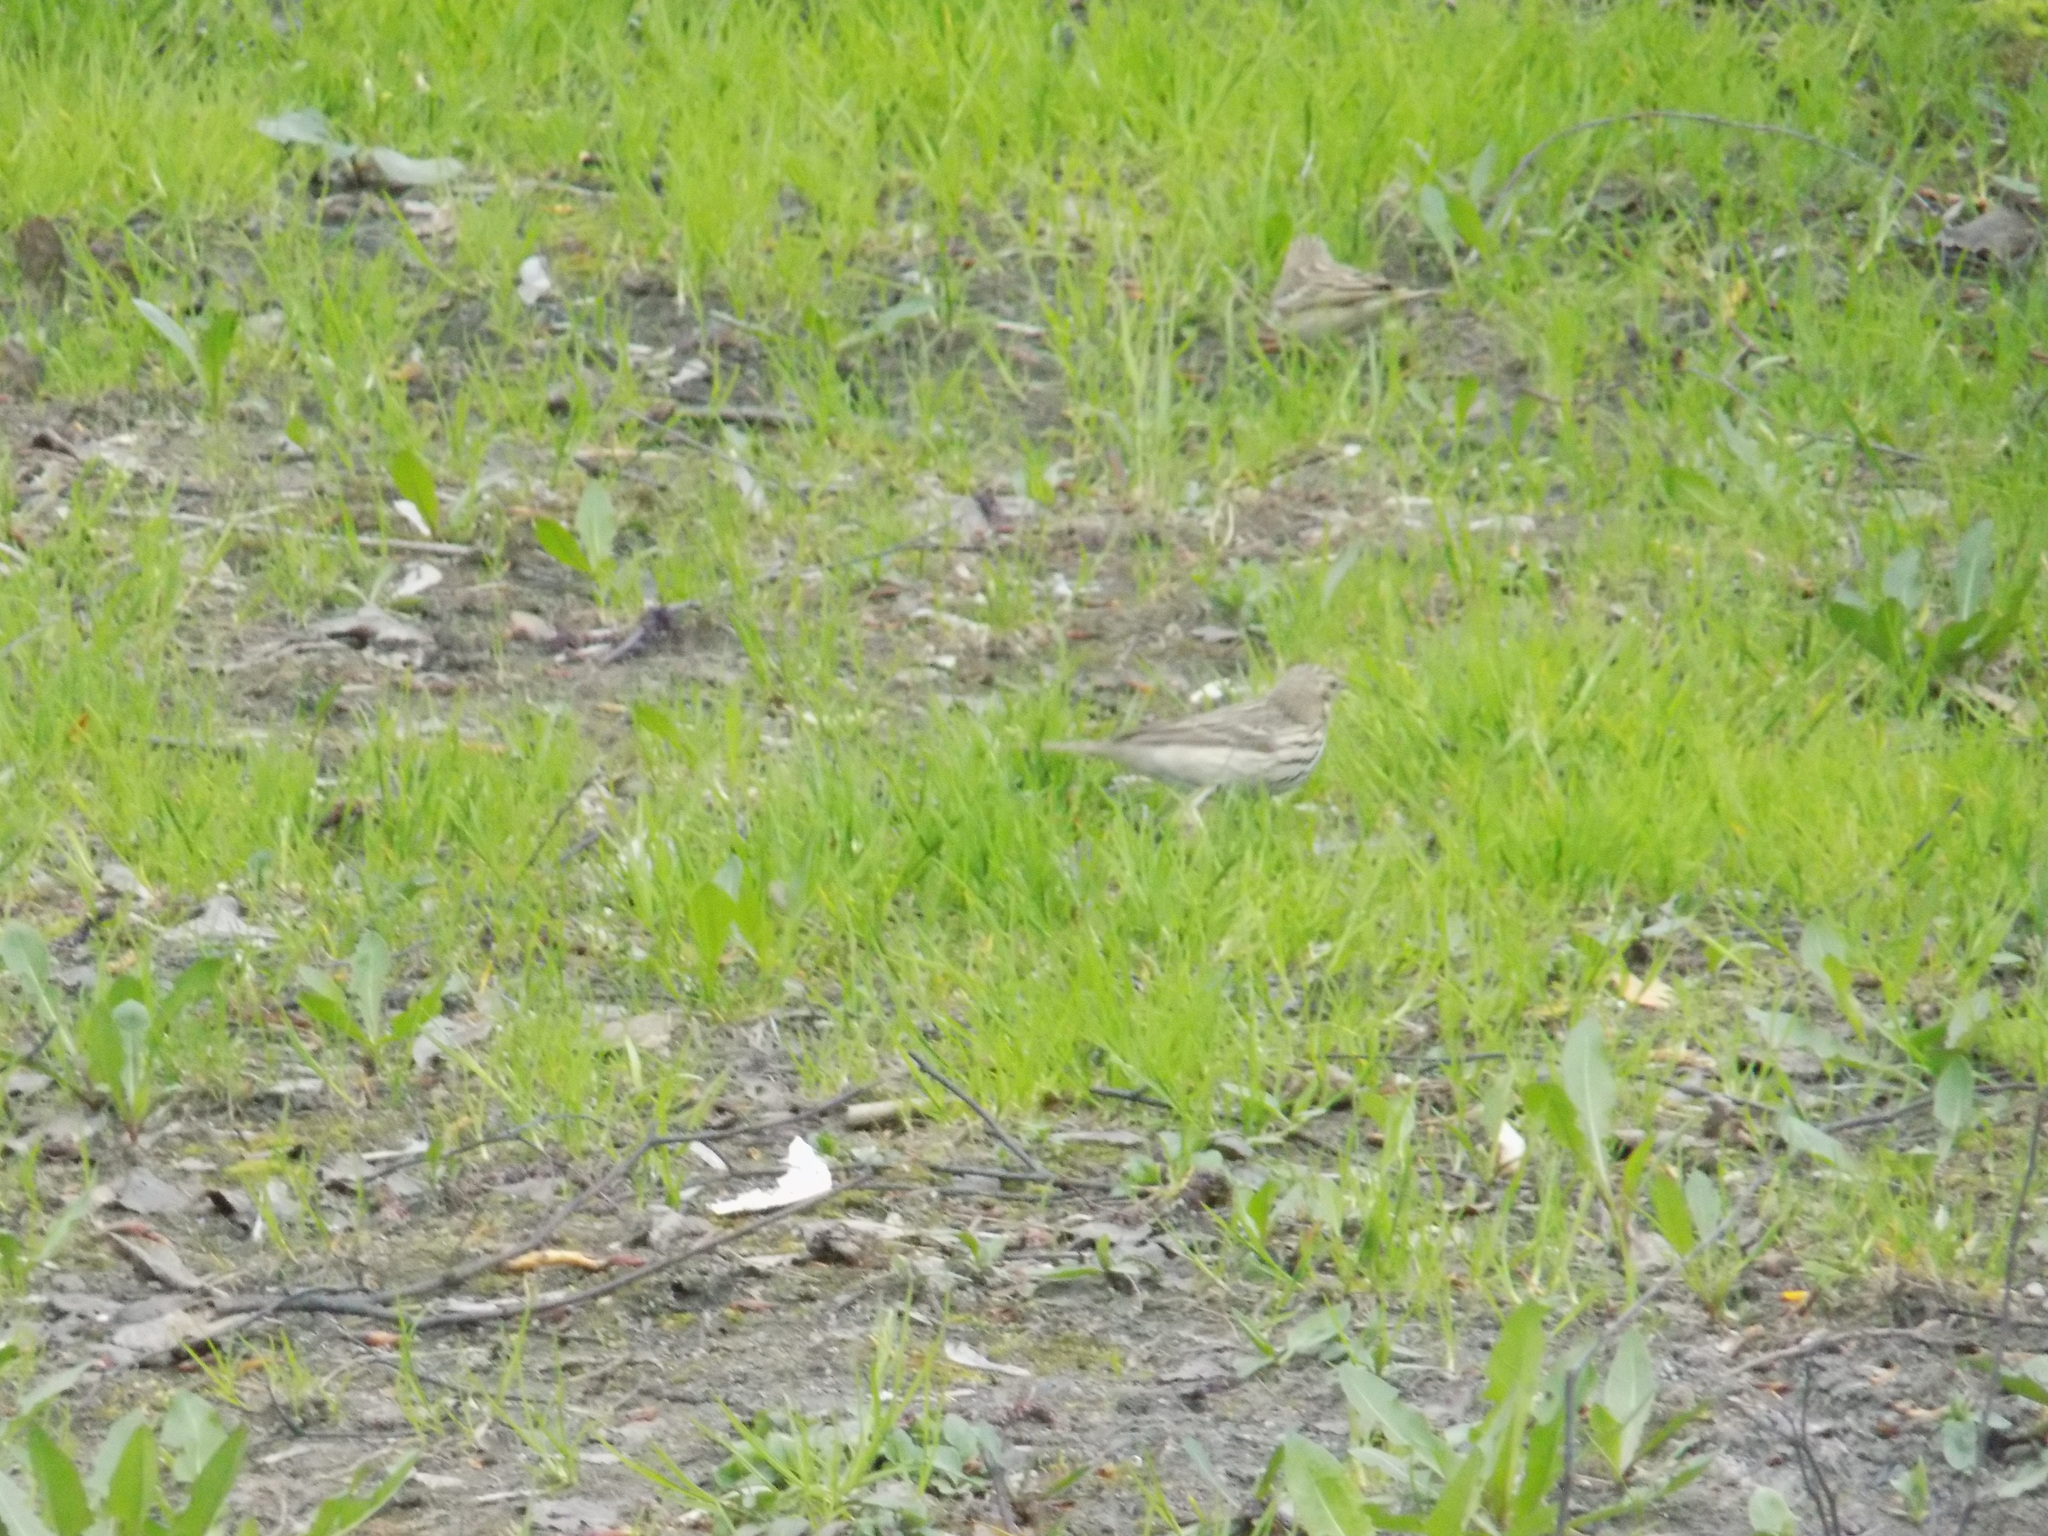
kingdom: Animalia
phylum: Chordata
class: Aves
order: Passeriformes
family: Motacillidae
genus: Anthus
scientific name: Anthus trivialis
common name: Tree pipit
